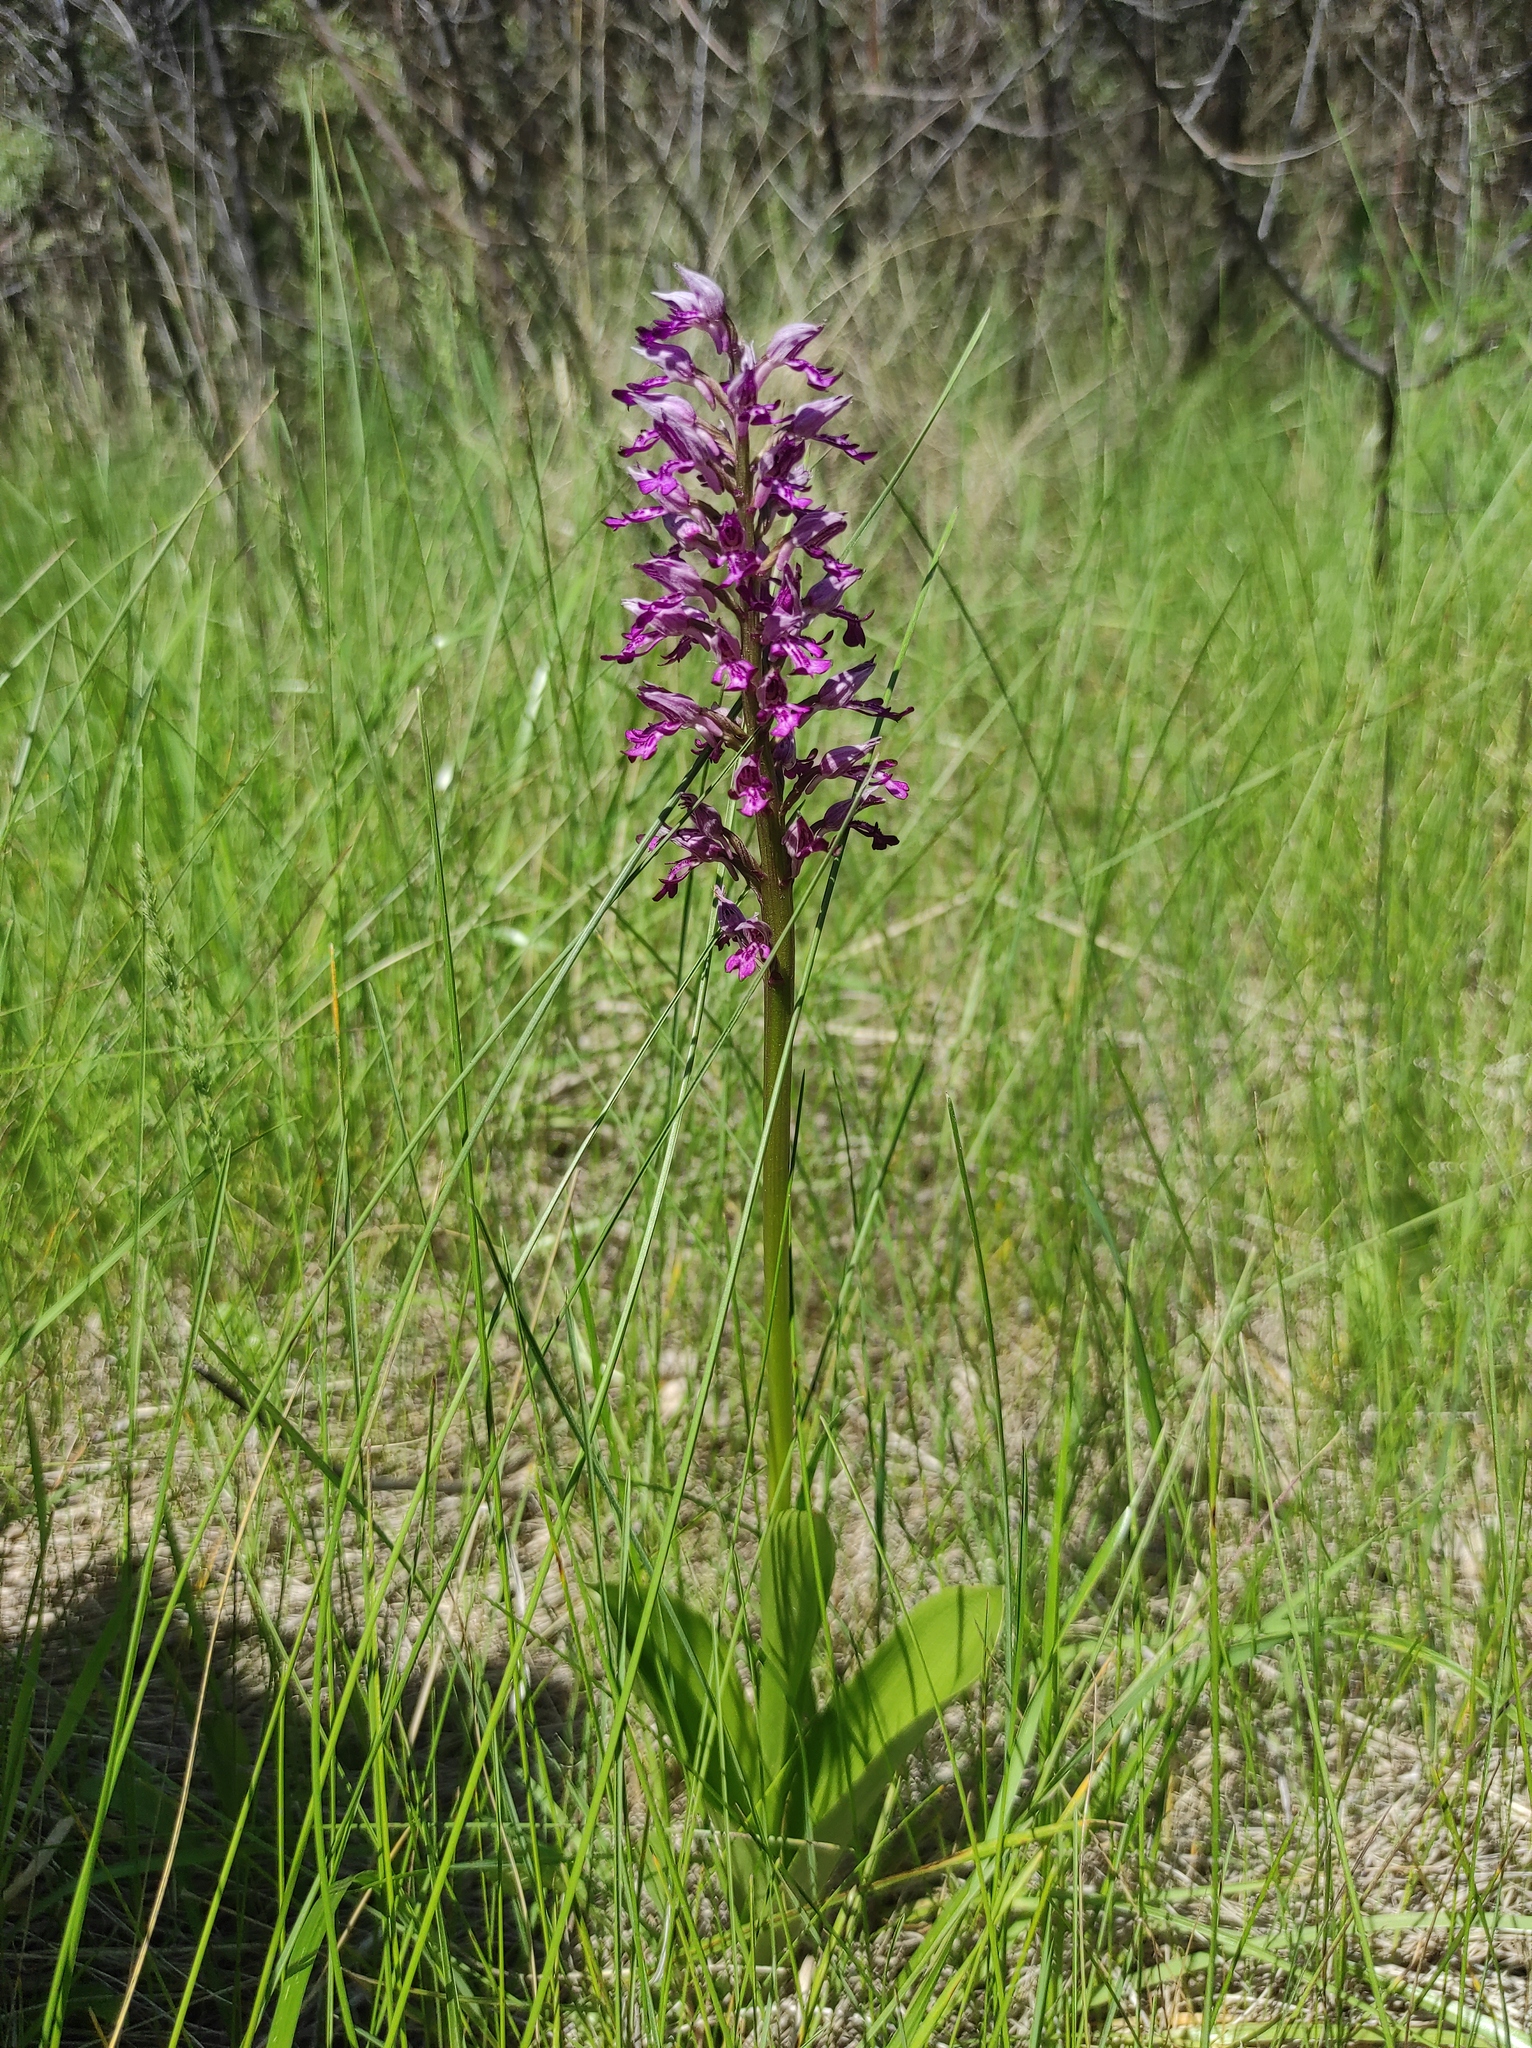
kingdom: Plantae
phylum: Tracheophyta
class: Liliopsida
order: Asparagales
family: Orchidaceae
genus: Orchis
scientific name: Orchis militaris
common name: Military orchid
